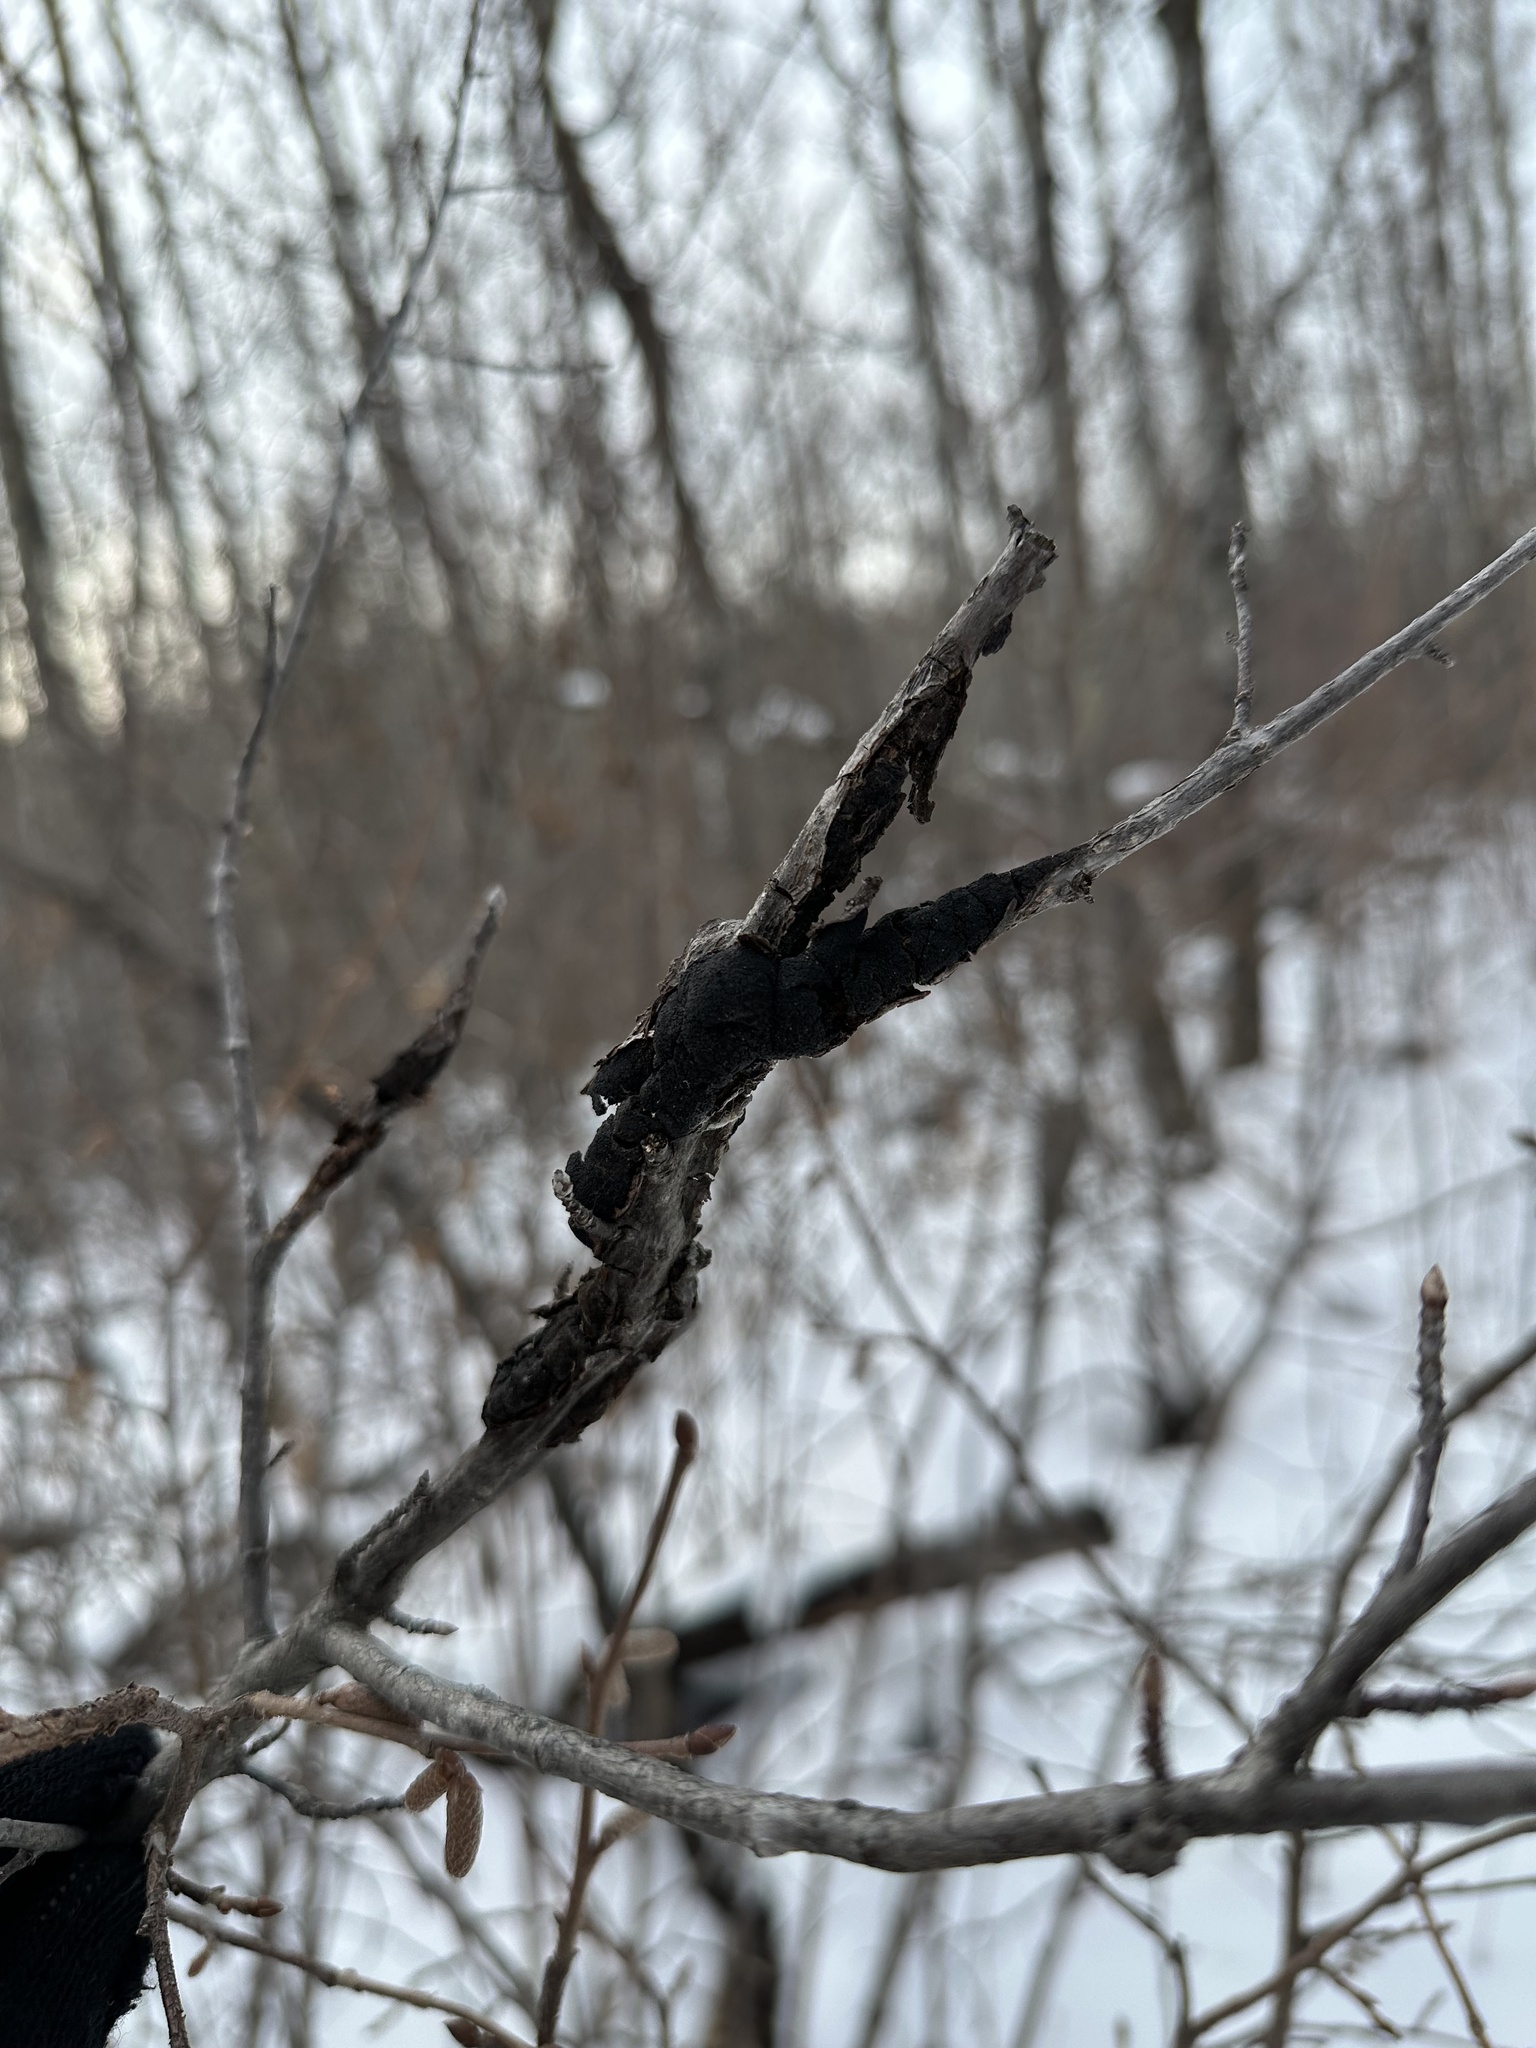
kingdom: Fungi
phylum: Ascomycota
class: Dothideomycetes
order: Venturiales
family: Venturiaceae
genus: Apiosporina
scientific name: Apiosporina morbosa
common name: Black knot
